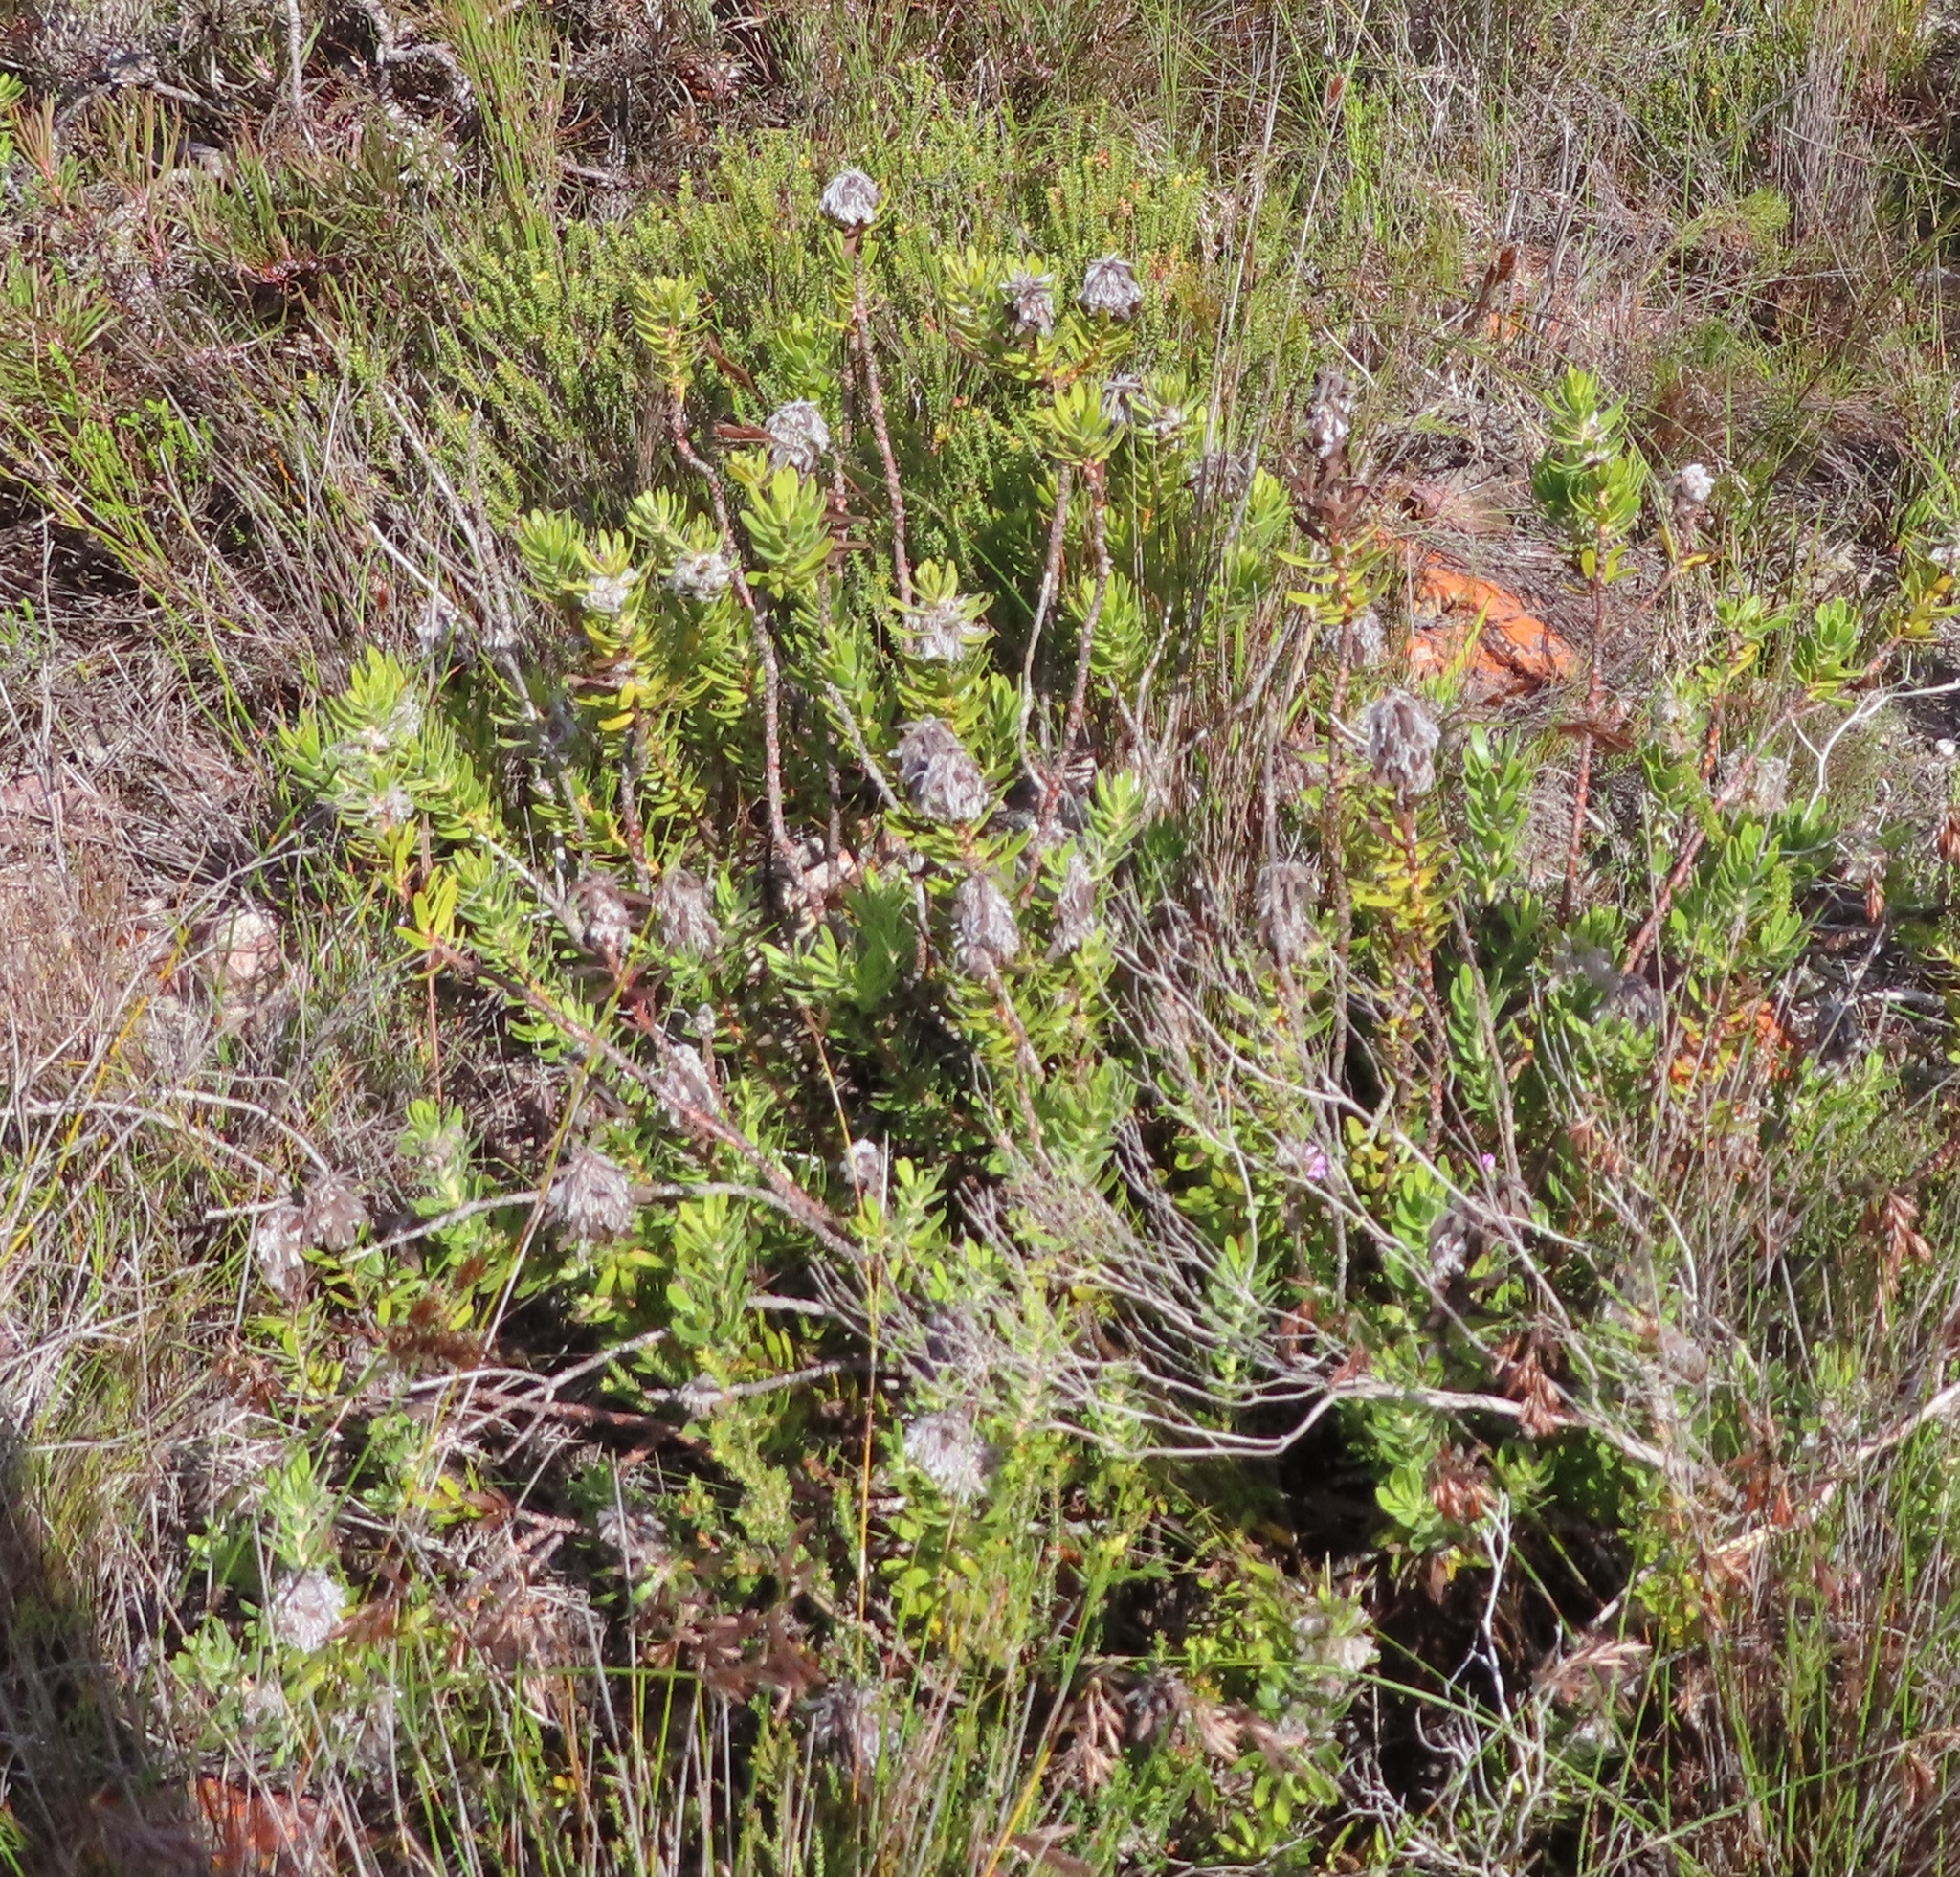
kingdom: Plantae
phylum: Tracheophyta
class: Magnoliopsida
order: Proteales
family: Proteaceae
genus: Mimetes
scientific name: Mimetes cucullatus
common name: Common pagoda
